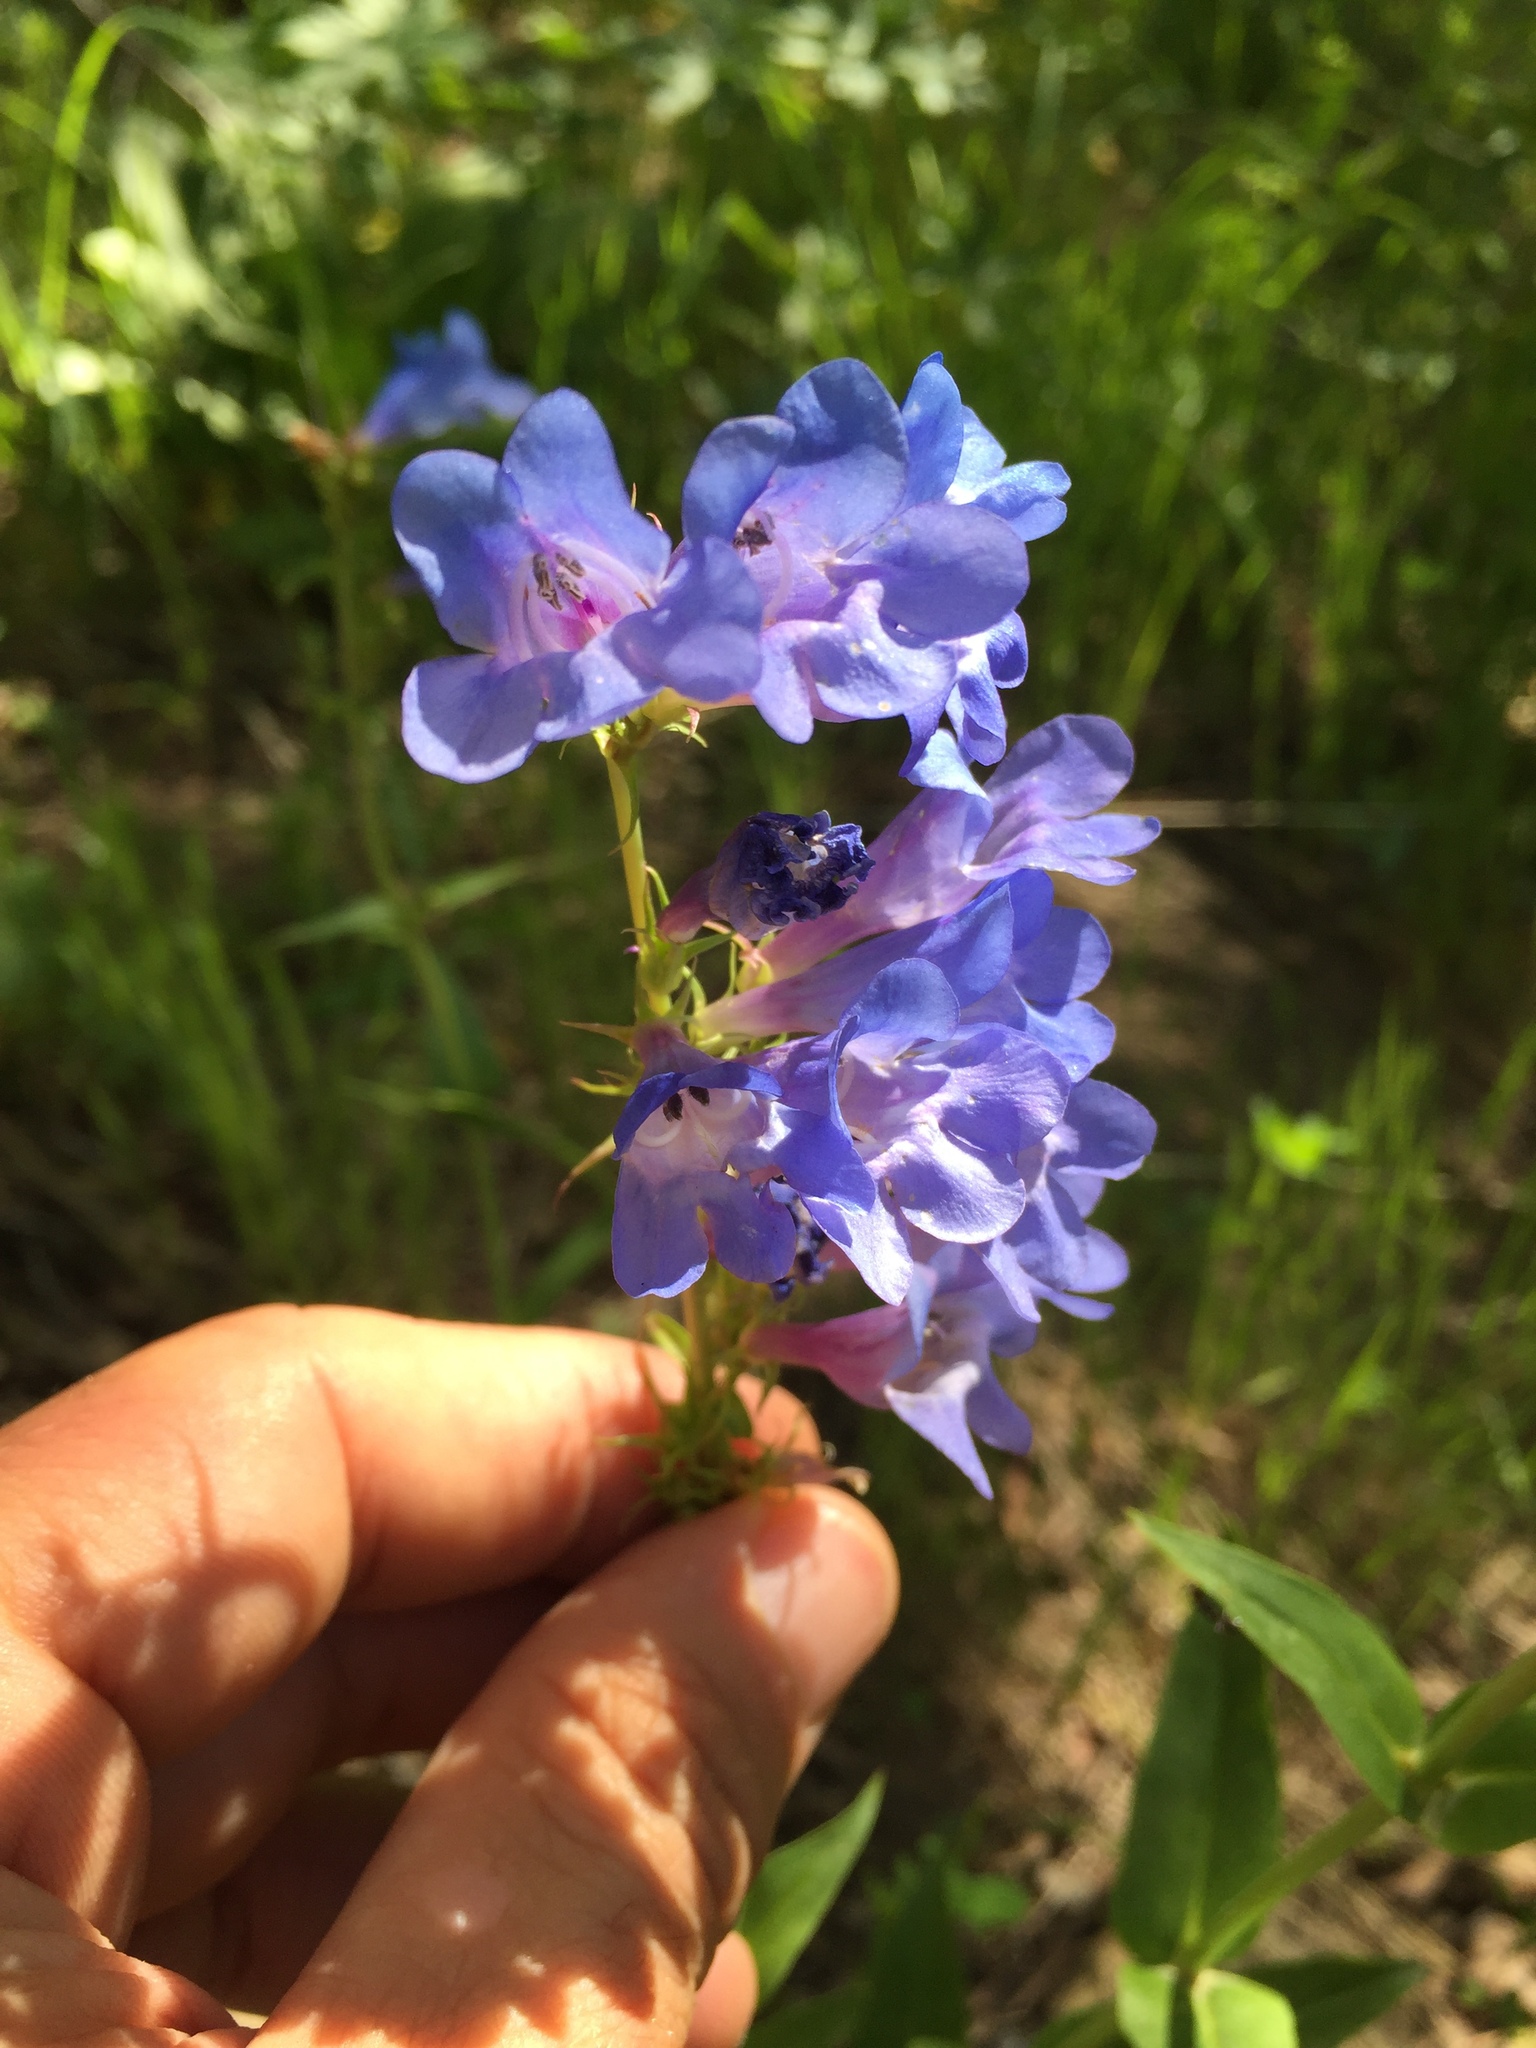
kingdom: Plantae
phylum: Tracheophyta
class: Magnoliopsida
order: Lamiales
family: Plantaginaceae
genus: Penstemon
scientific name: Penstemon cyananthus
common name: Wasatch penstemon
